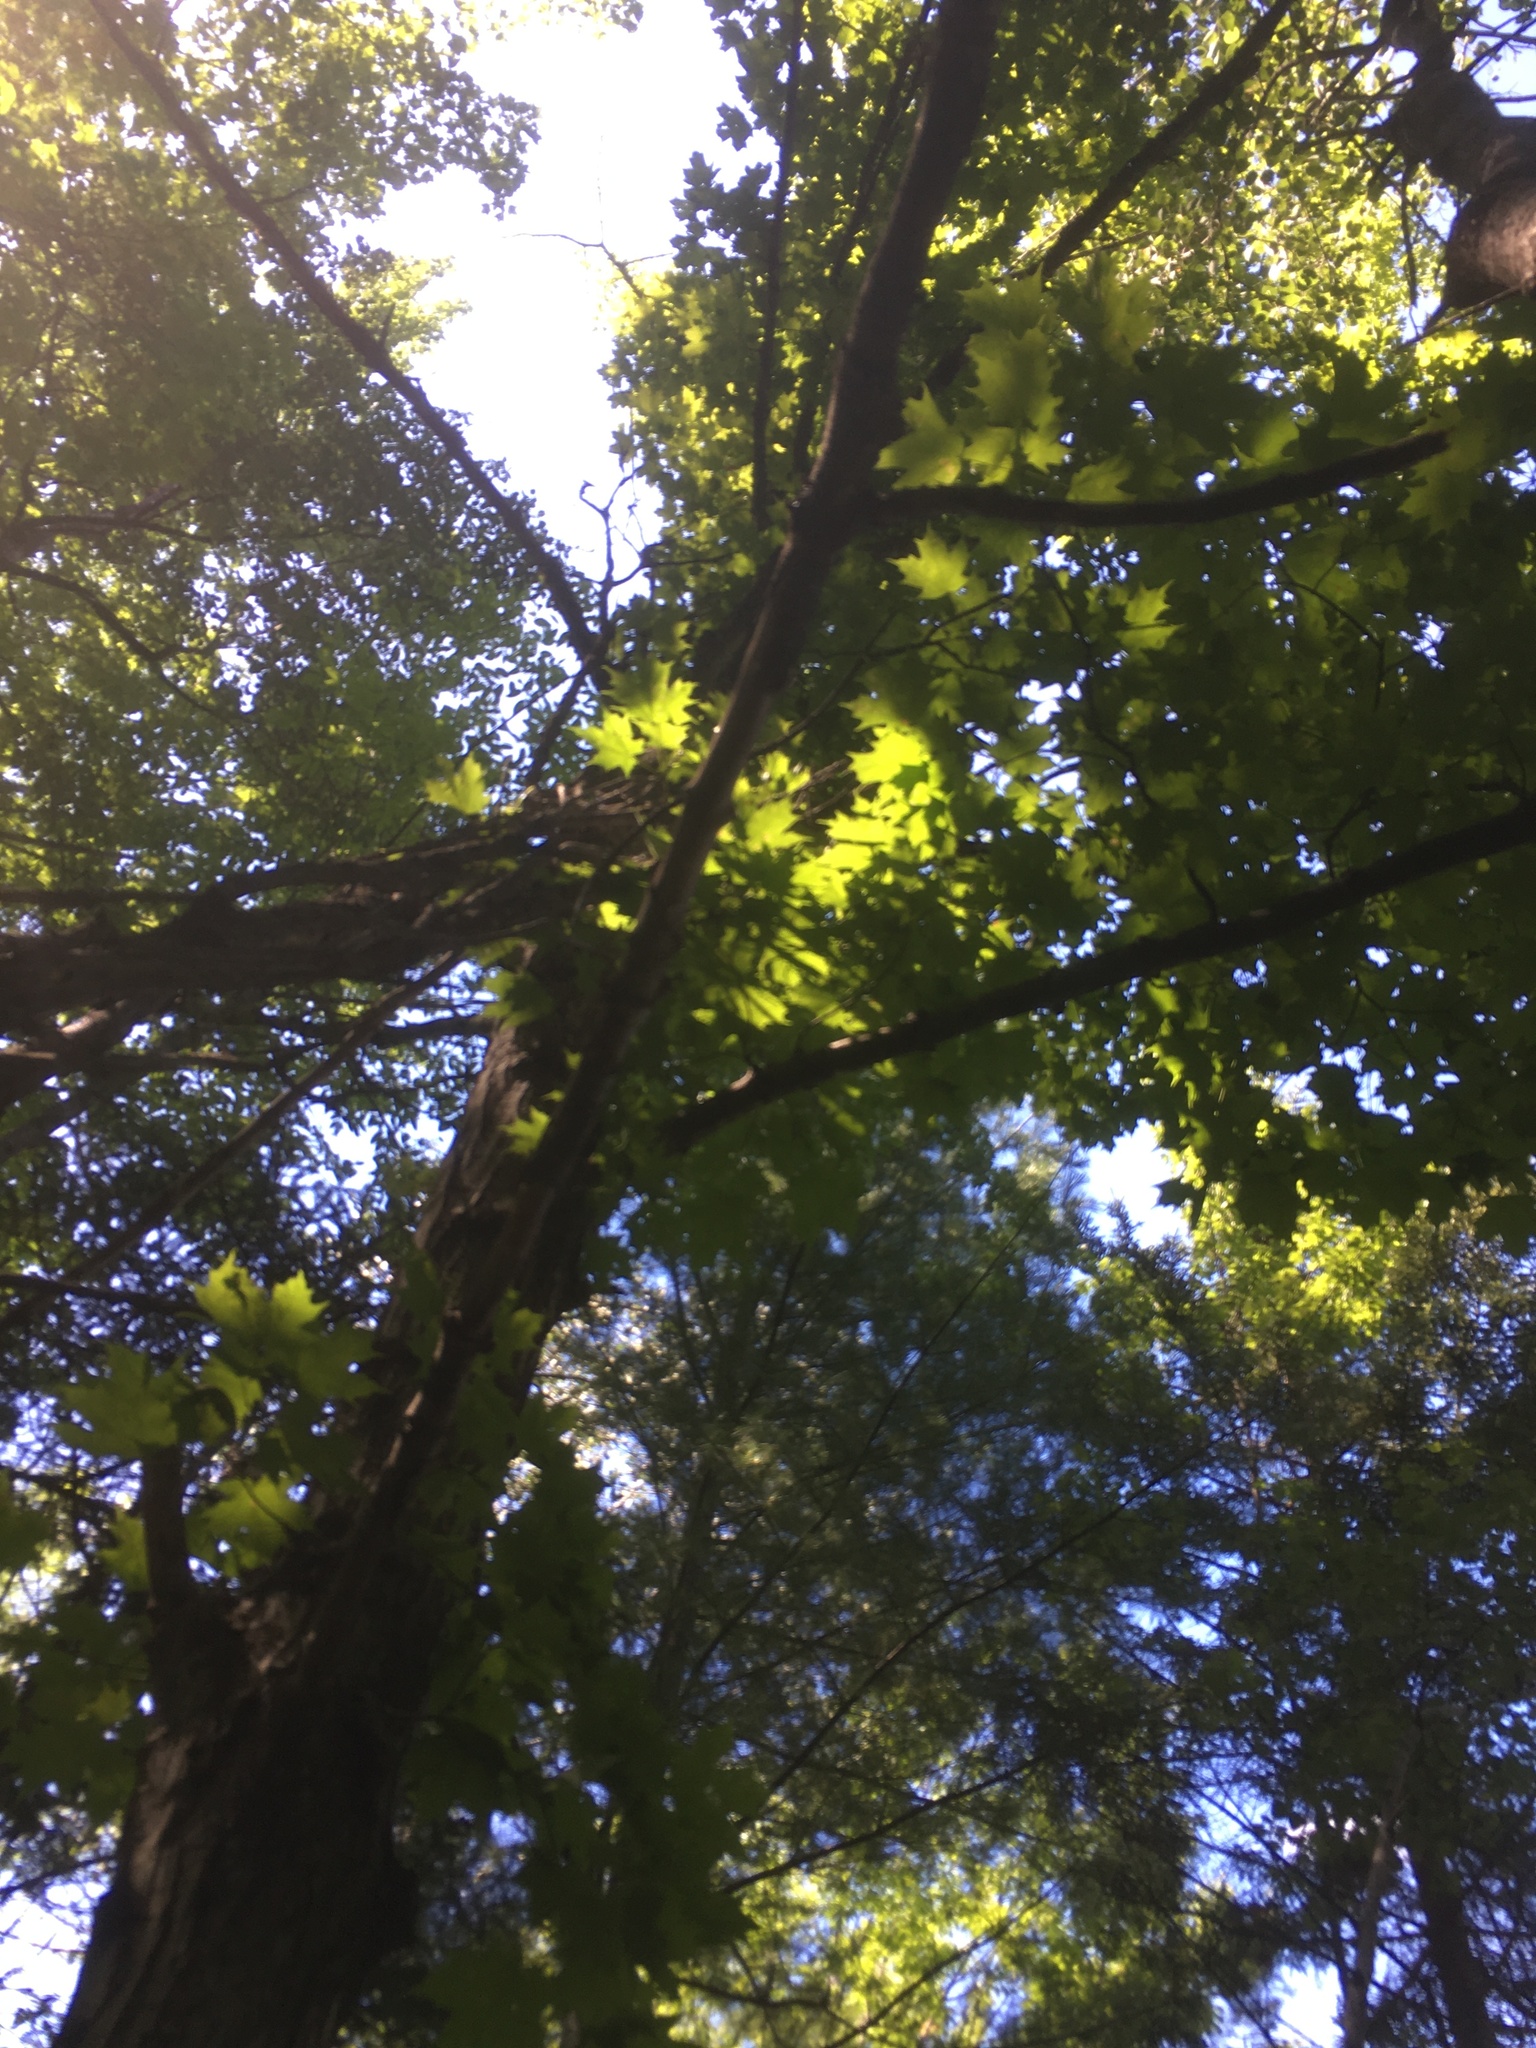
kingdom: Plantae
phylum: Tracheophyta
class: Magnoliopsida
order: Sapindales
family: Sapindaceae
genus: Acer
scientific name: Acer saccharum
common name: Sugar maple
